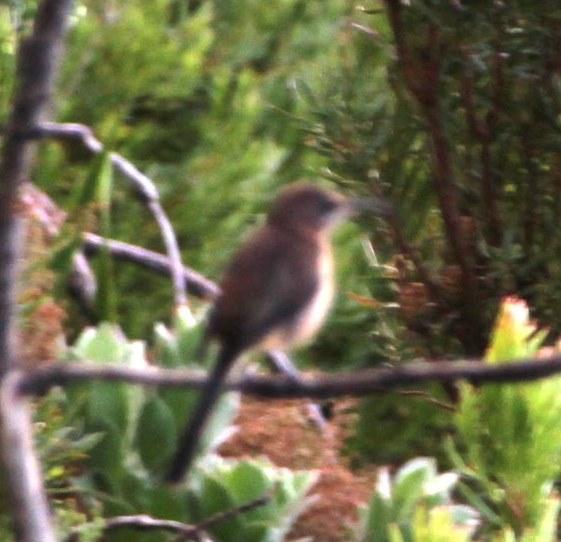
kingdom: Animalia
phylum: Chordata
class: Aves
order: Passeriformes
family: Promeropidae
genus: Promerops
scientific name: Promerops cafer
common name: Cape sugarbird
